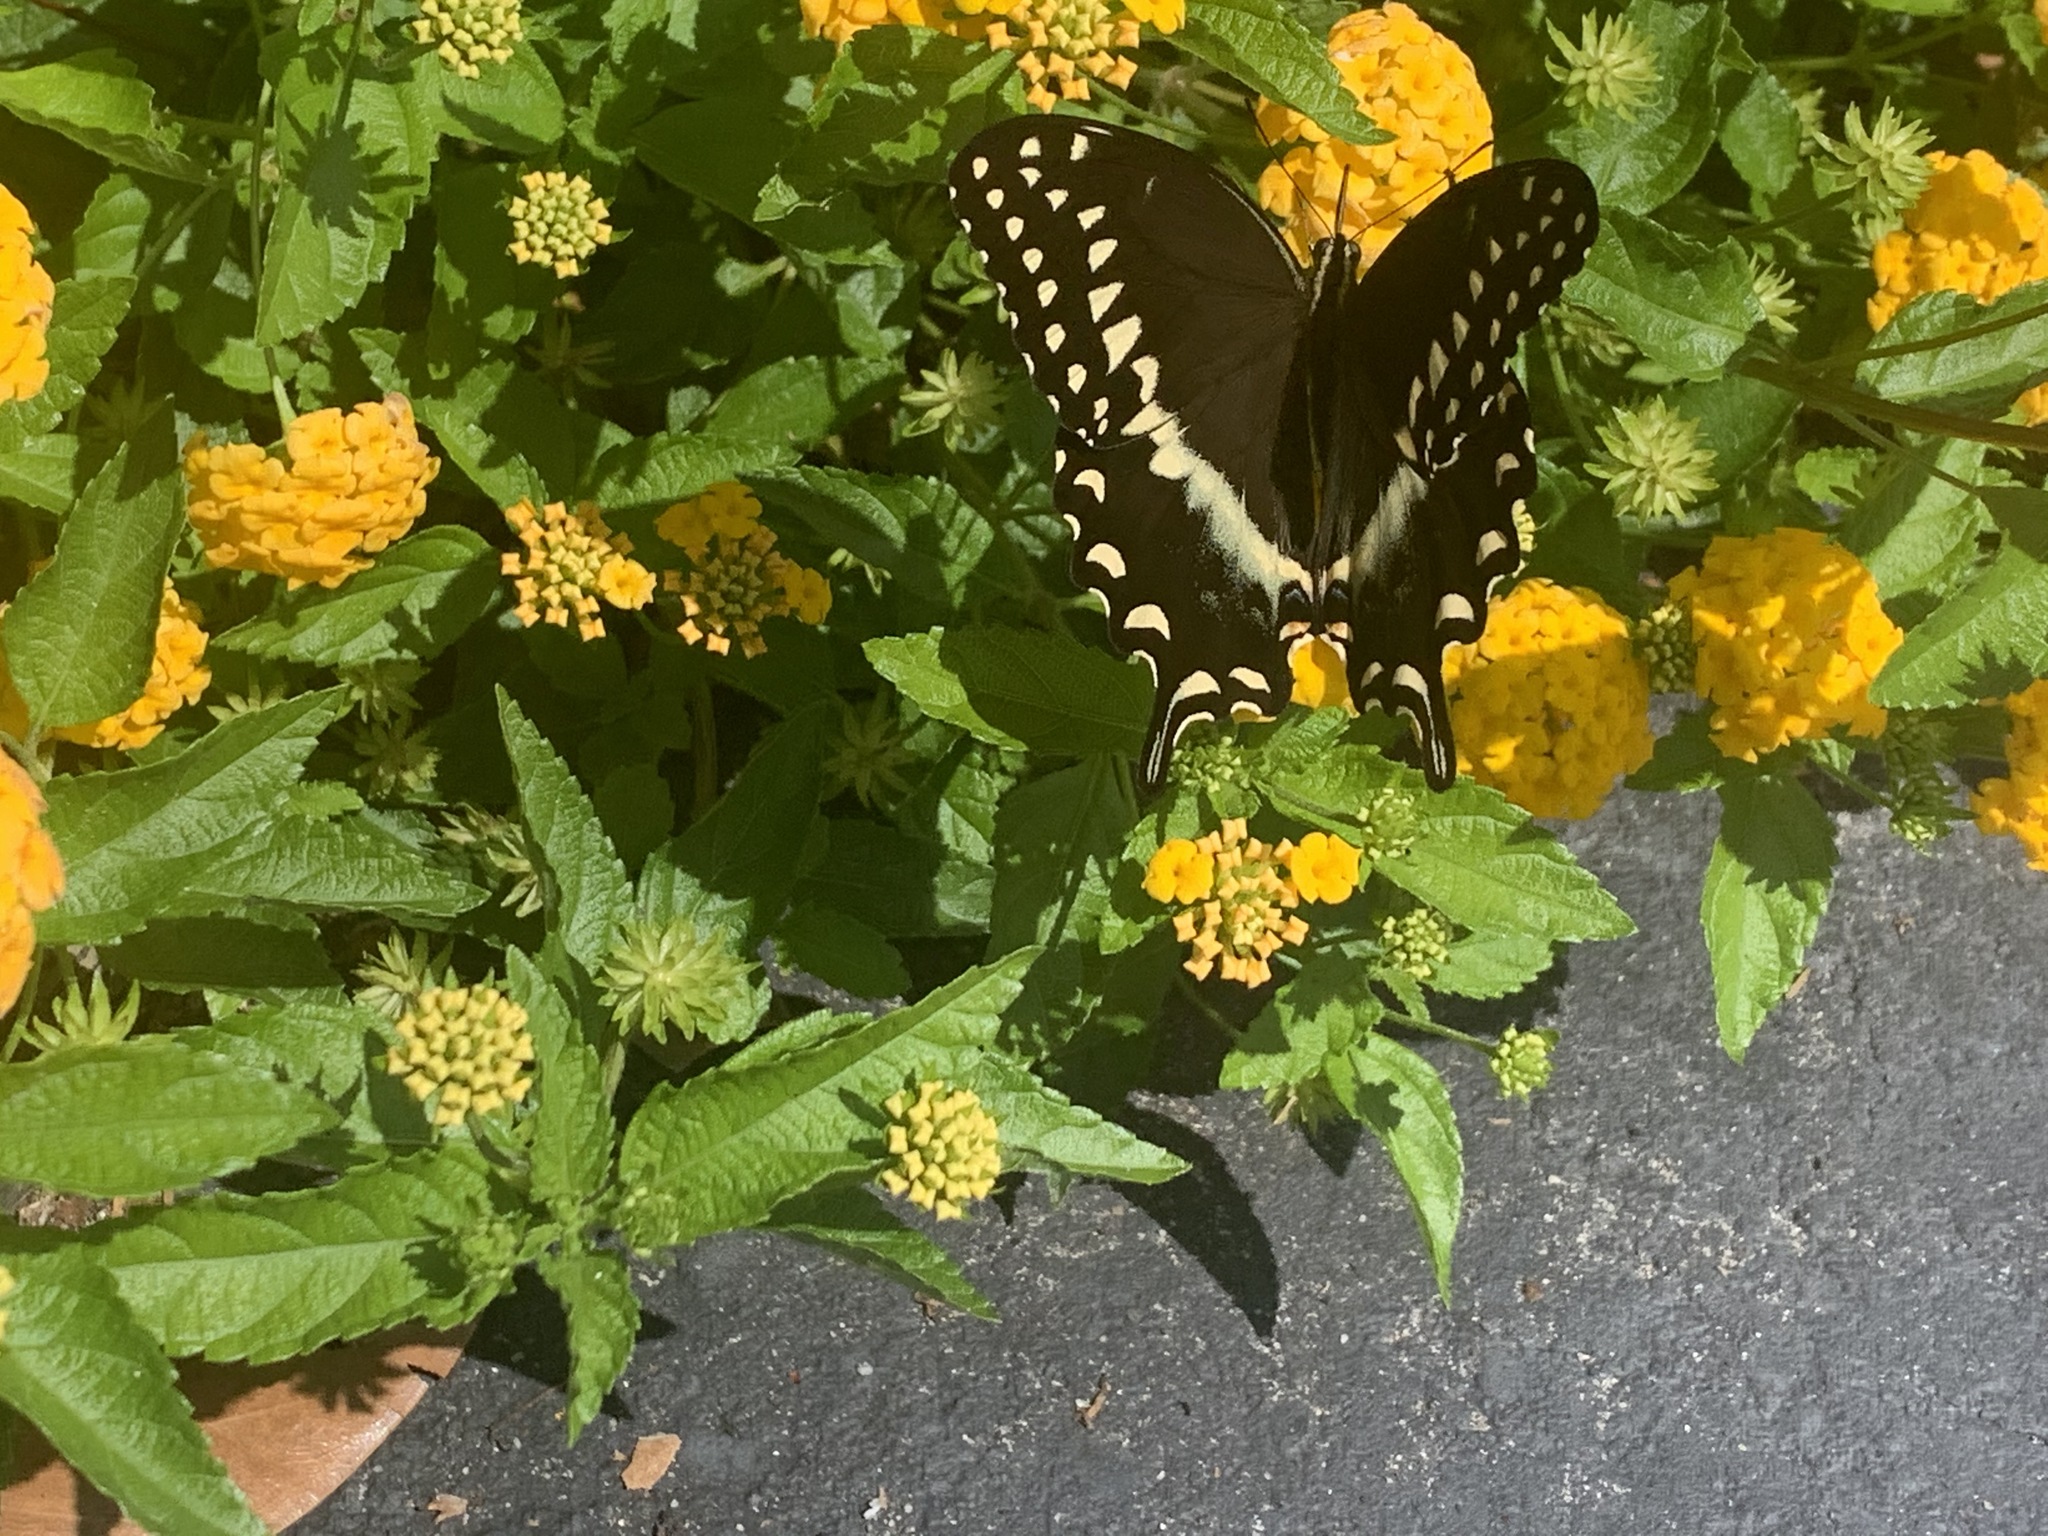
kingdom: Animalia
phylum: Arthropoda
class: Insecta
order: Lepidoptera
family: Papilionidae
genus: Papilio
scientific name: Papilio palamedes
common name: Palamedes swallowtail
